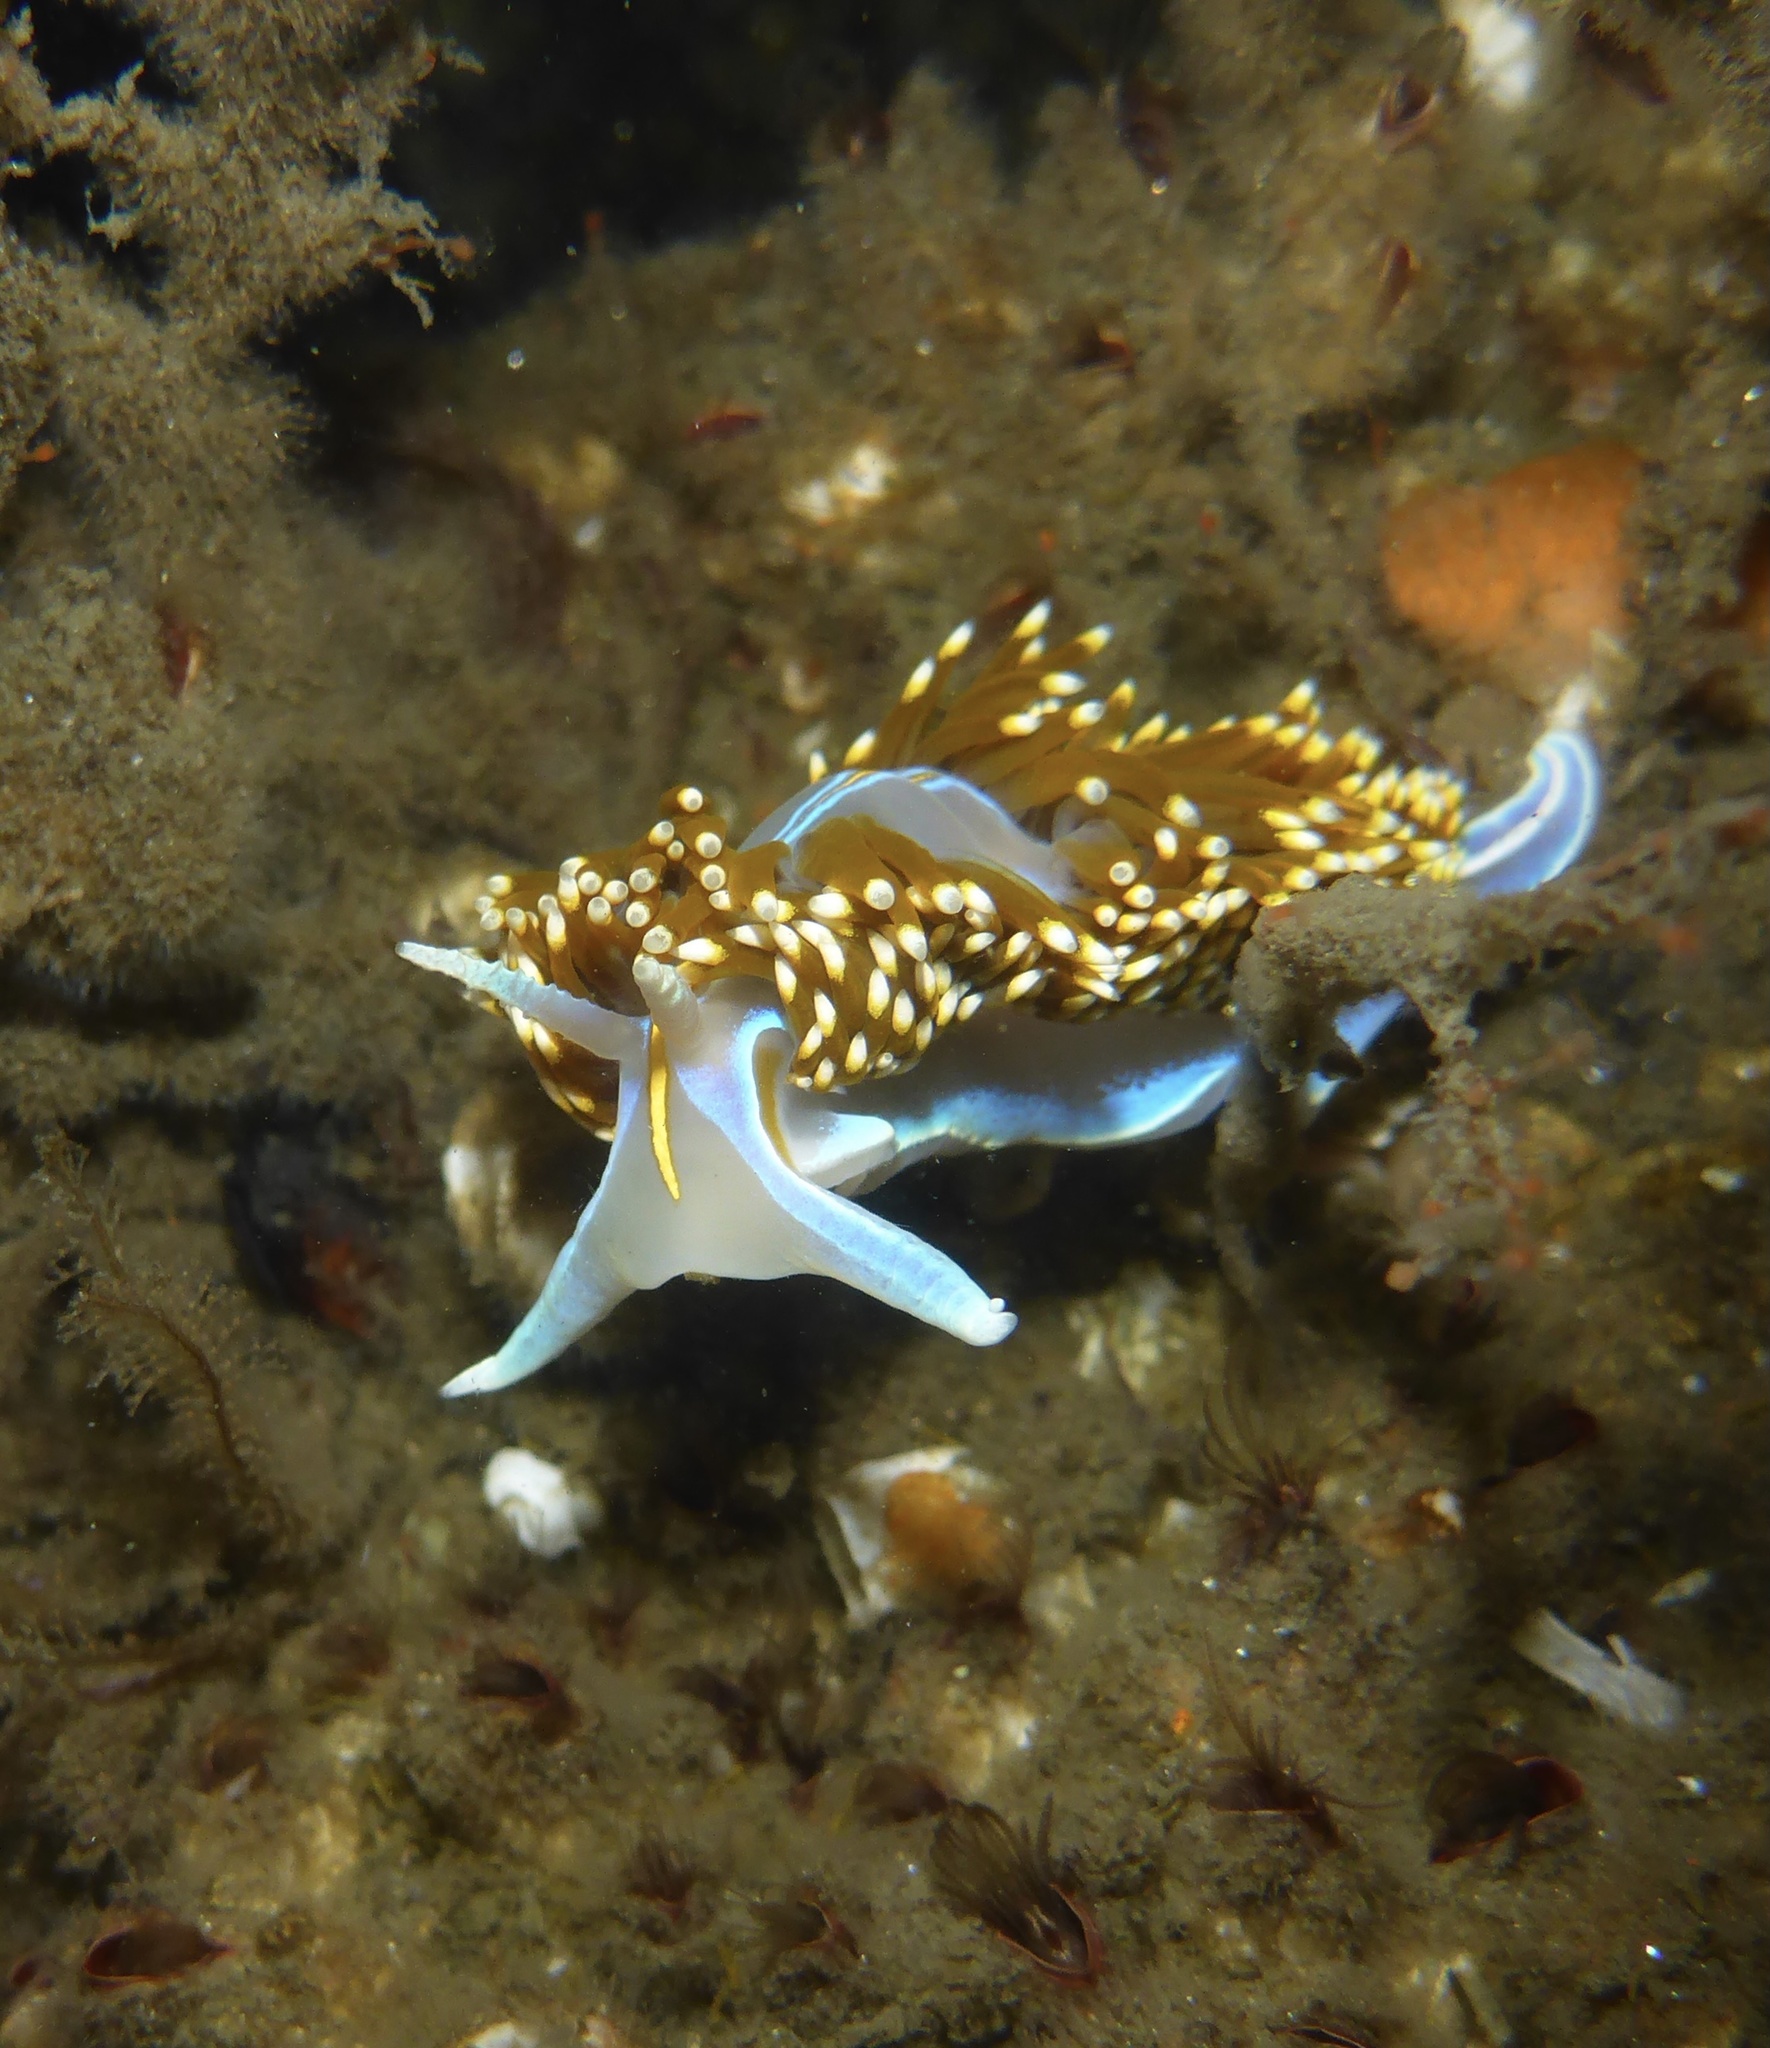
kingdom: Animalia
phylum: Mollusca
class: Gastropoda
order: Nudibranchia
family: Myrrhinidae
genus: Hermissenda
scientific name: Hermissenda opalescens
